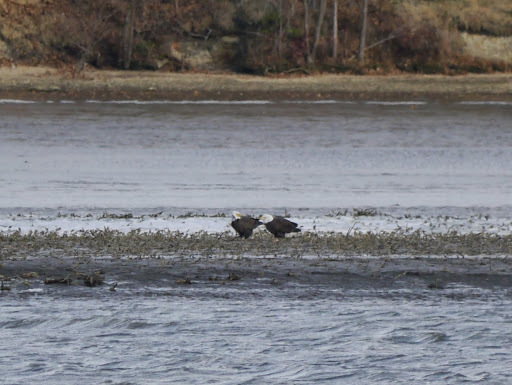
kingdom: Animalia
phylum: Chordata
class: Aves
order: Accipitriformes
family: Accipitridae
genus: Haliaeetus
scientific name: Haliaeetus leucocephalus
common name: Bald eagle
